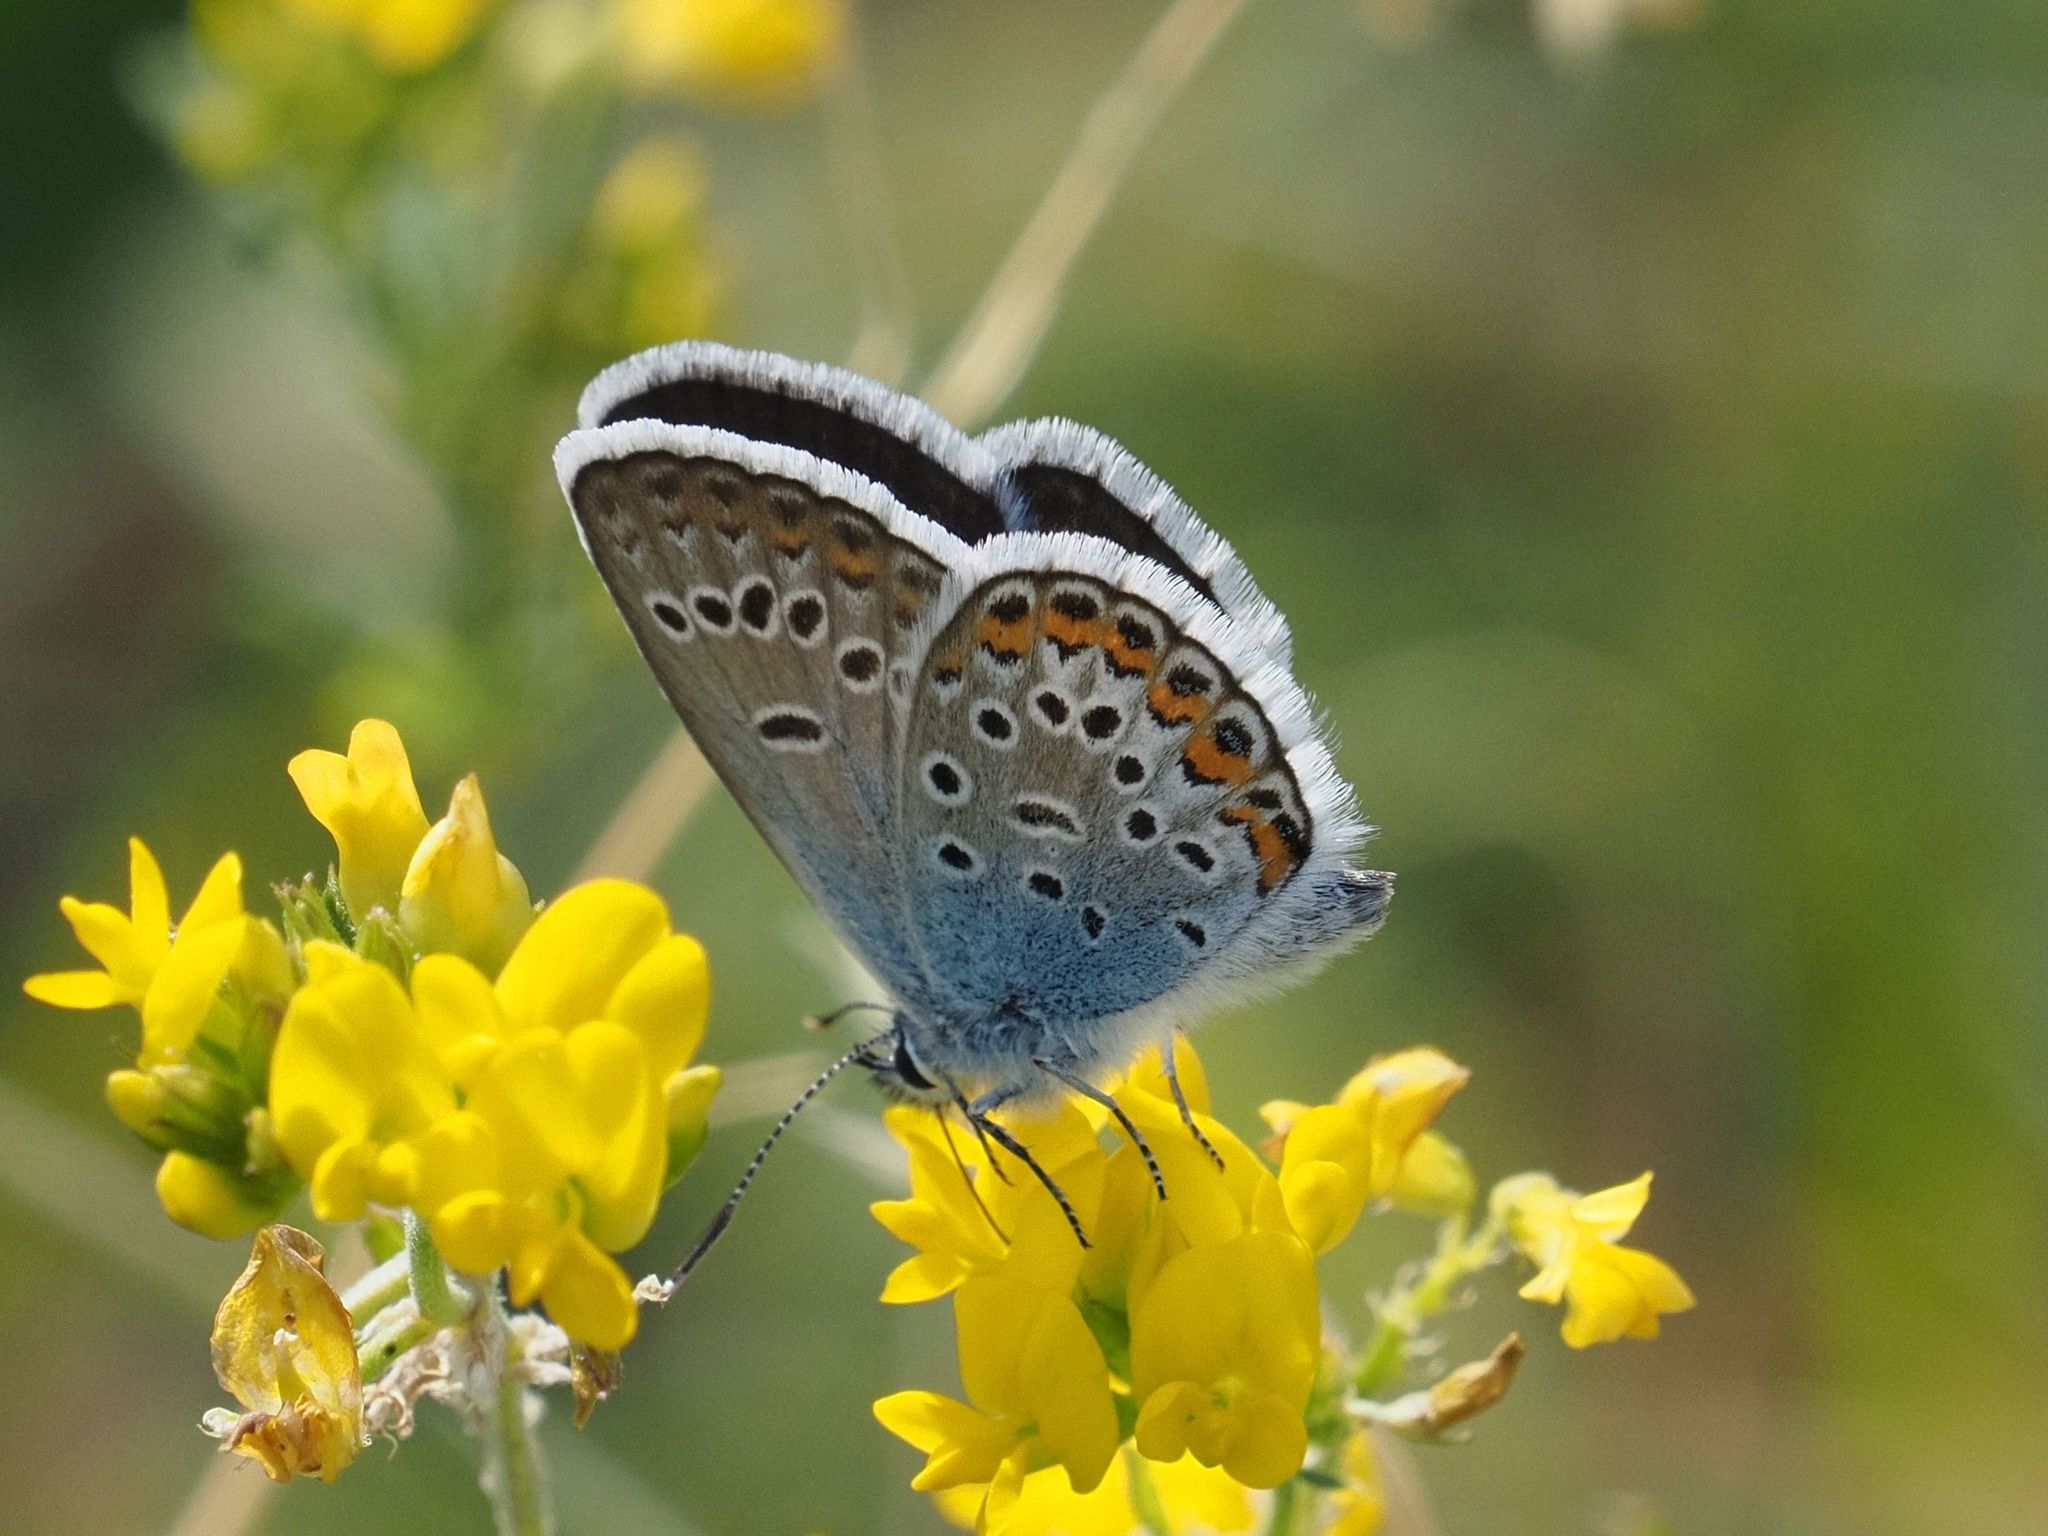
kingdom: Animalia
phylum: Arthropoda
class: Insecta
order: Lepidoptera
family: Lycaenidae
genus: Plebejus
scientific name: Plebejus argus
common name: Silver-studded blue
